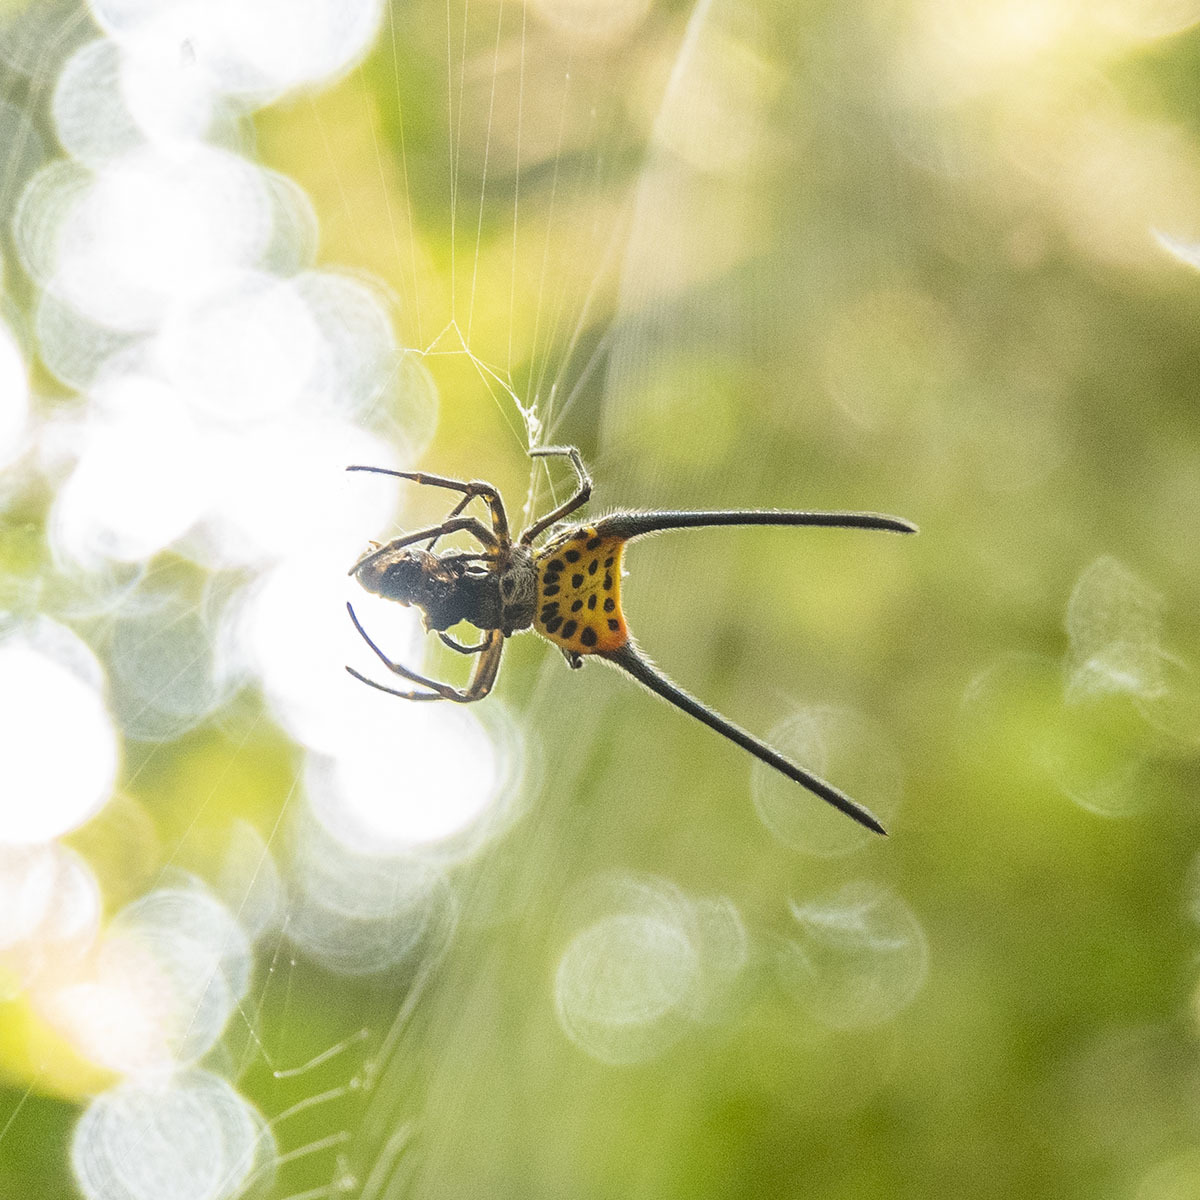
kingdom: Animalia
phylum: Arthropoda
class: Arachnida
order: Araneae
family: Araneidae
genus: Gasteracantha
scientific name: Gasteracantha dalyi
